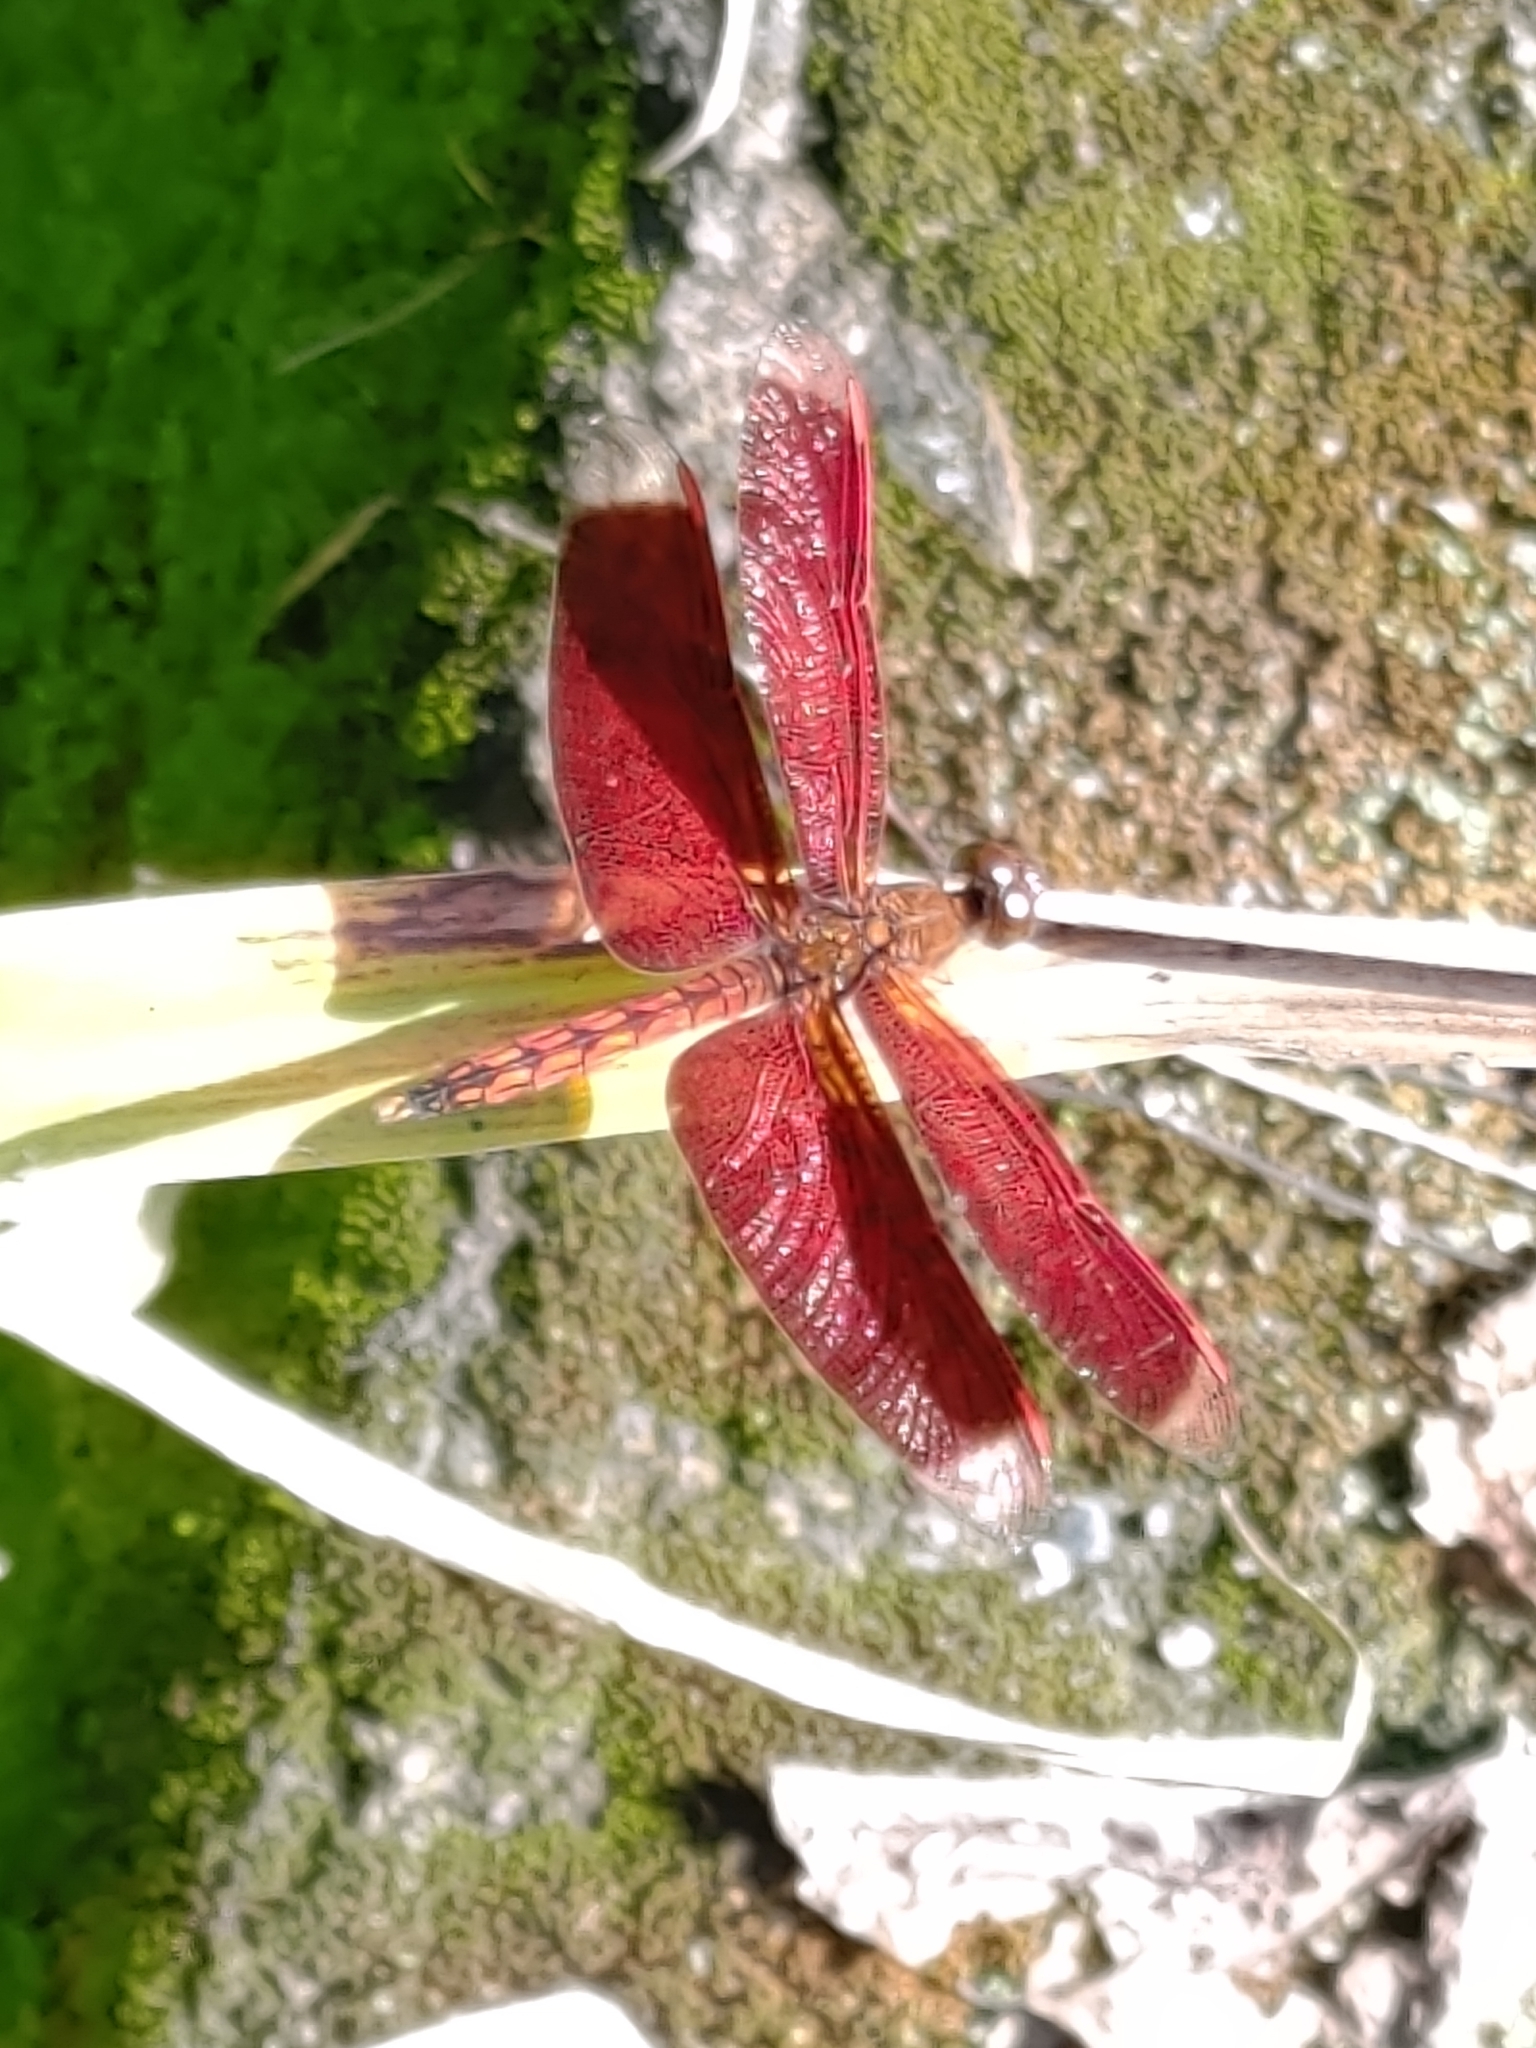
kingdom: Animalia
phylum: Arthropoda
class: Insecta
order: Odonata
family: Libellulidae
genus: Neurothemis
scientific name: Neurothemis taiwanensis
